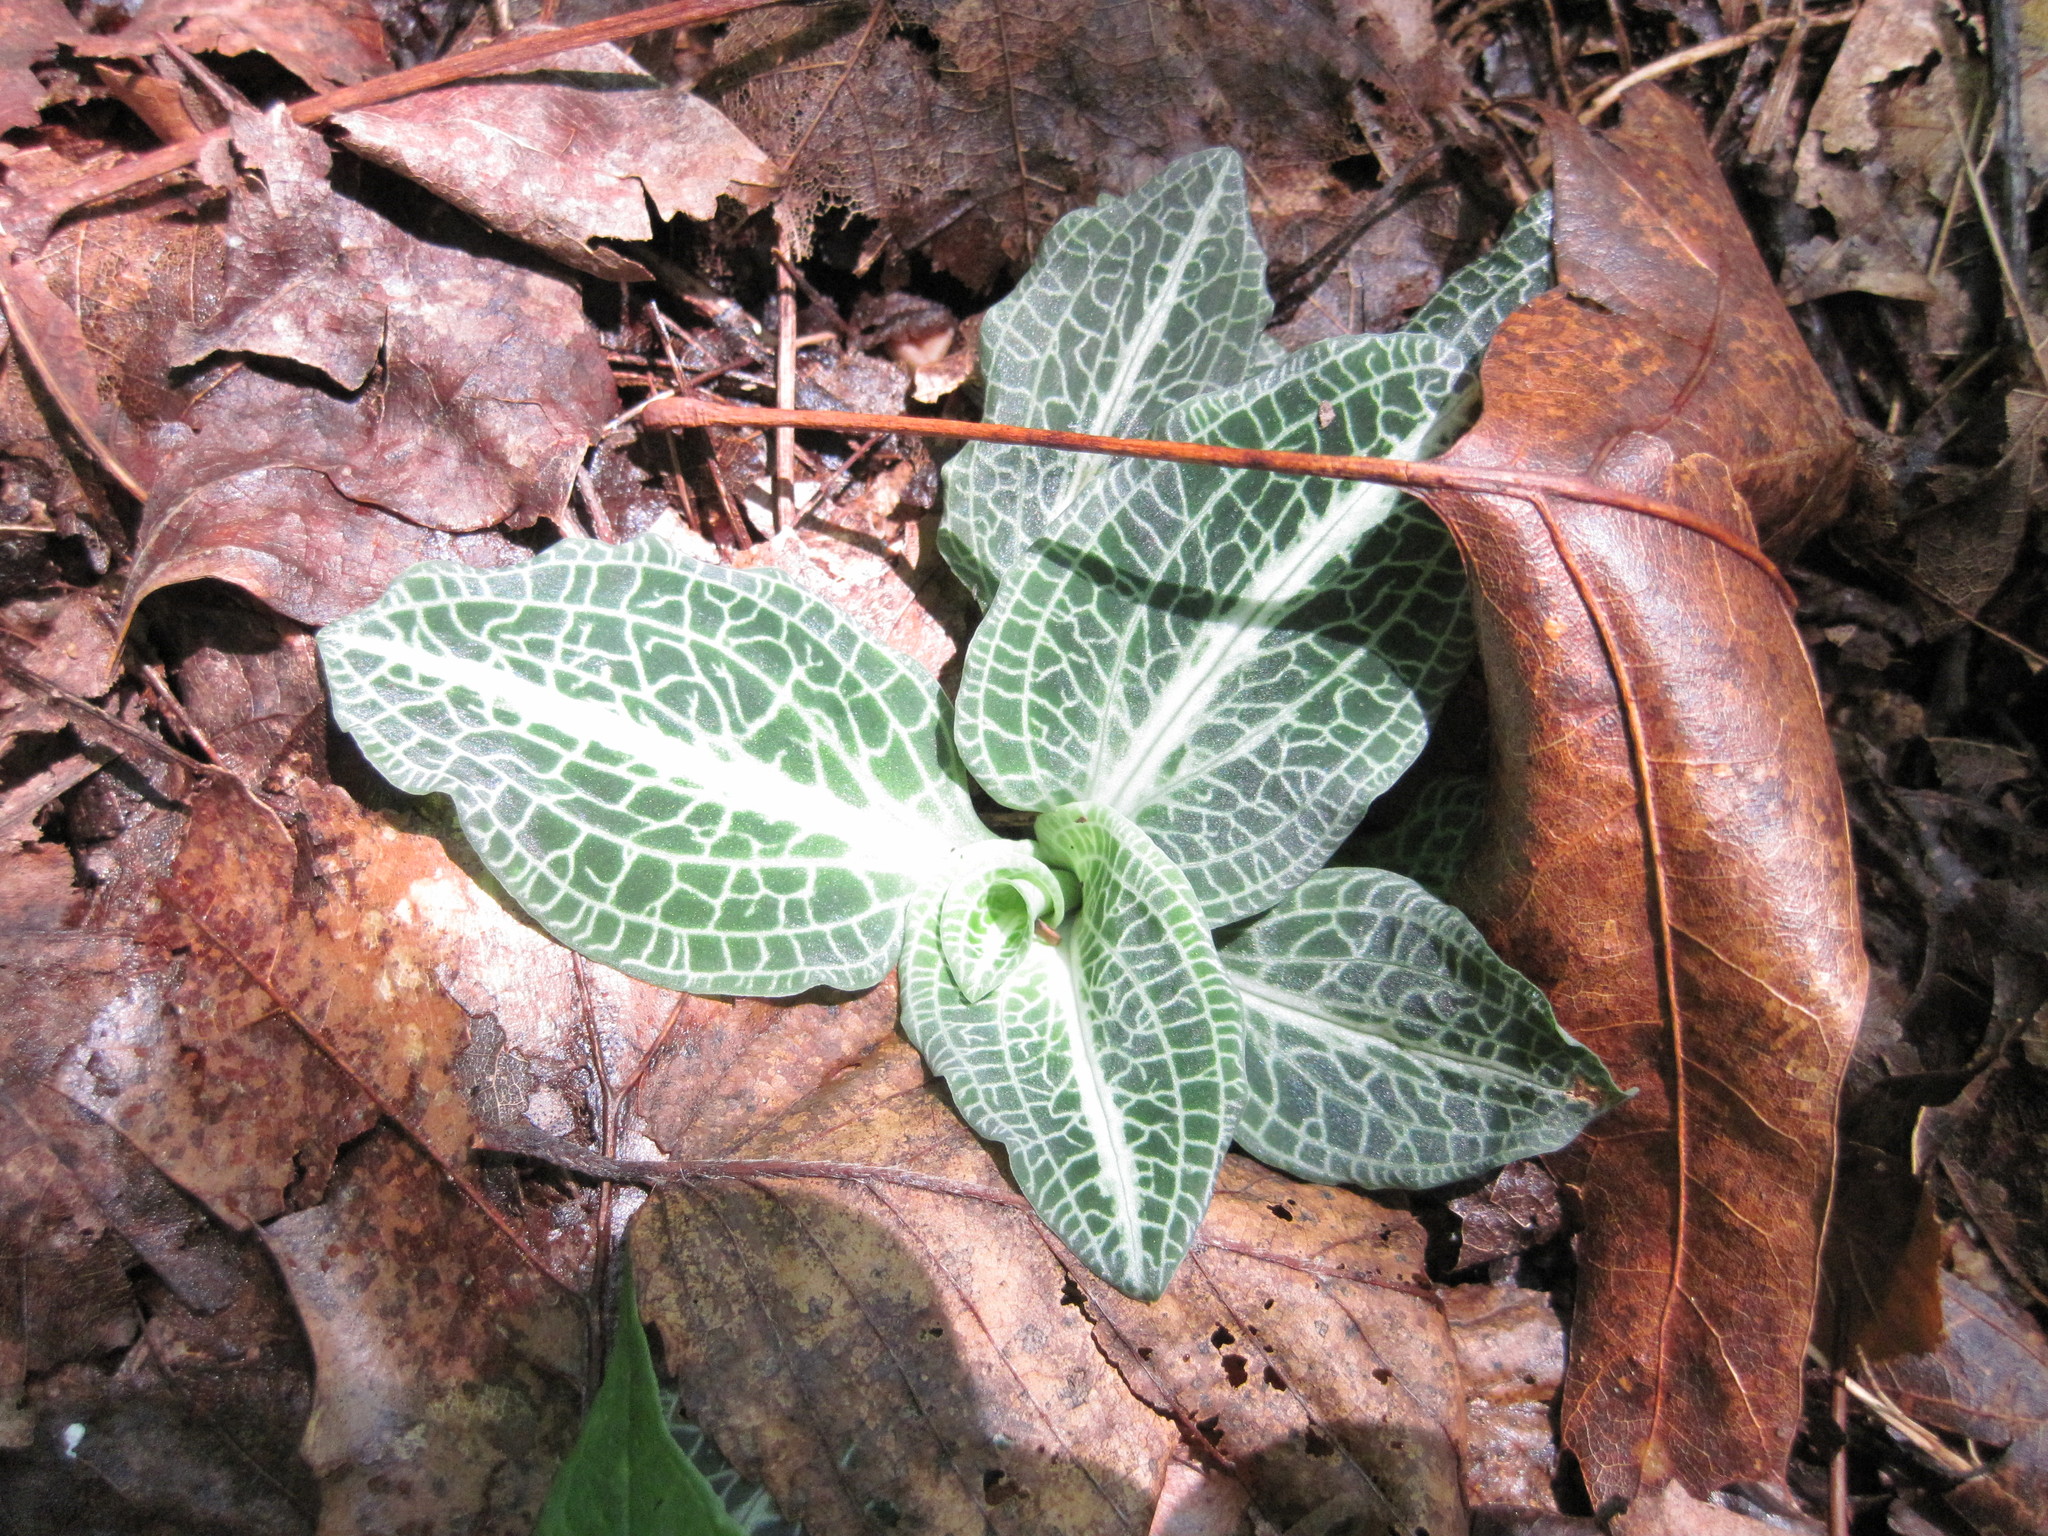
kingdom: Plantae
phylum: Tracheophyta
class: Liliopsida
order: Asparagales
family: Orchidaceae
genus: Goodyera
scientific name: Goodyera pubescens
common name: Downy rattlesnake-plantain
